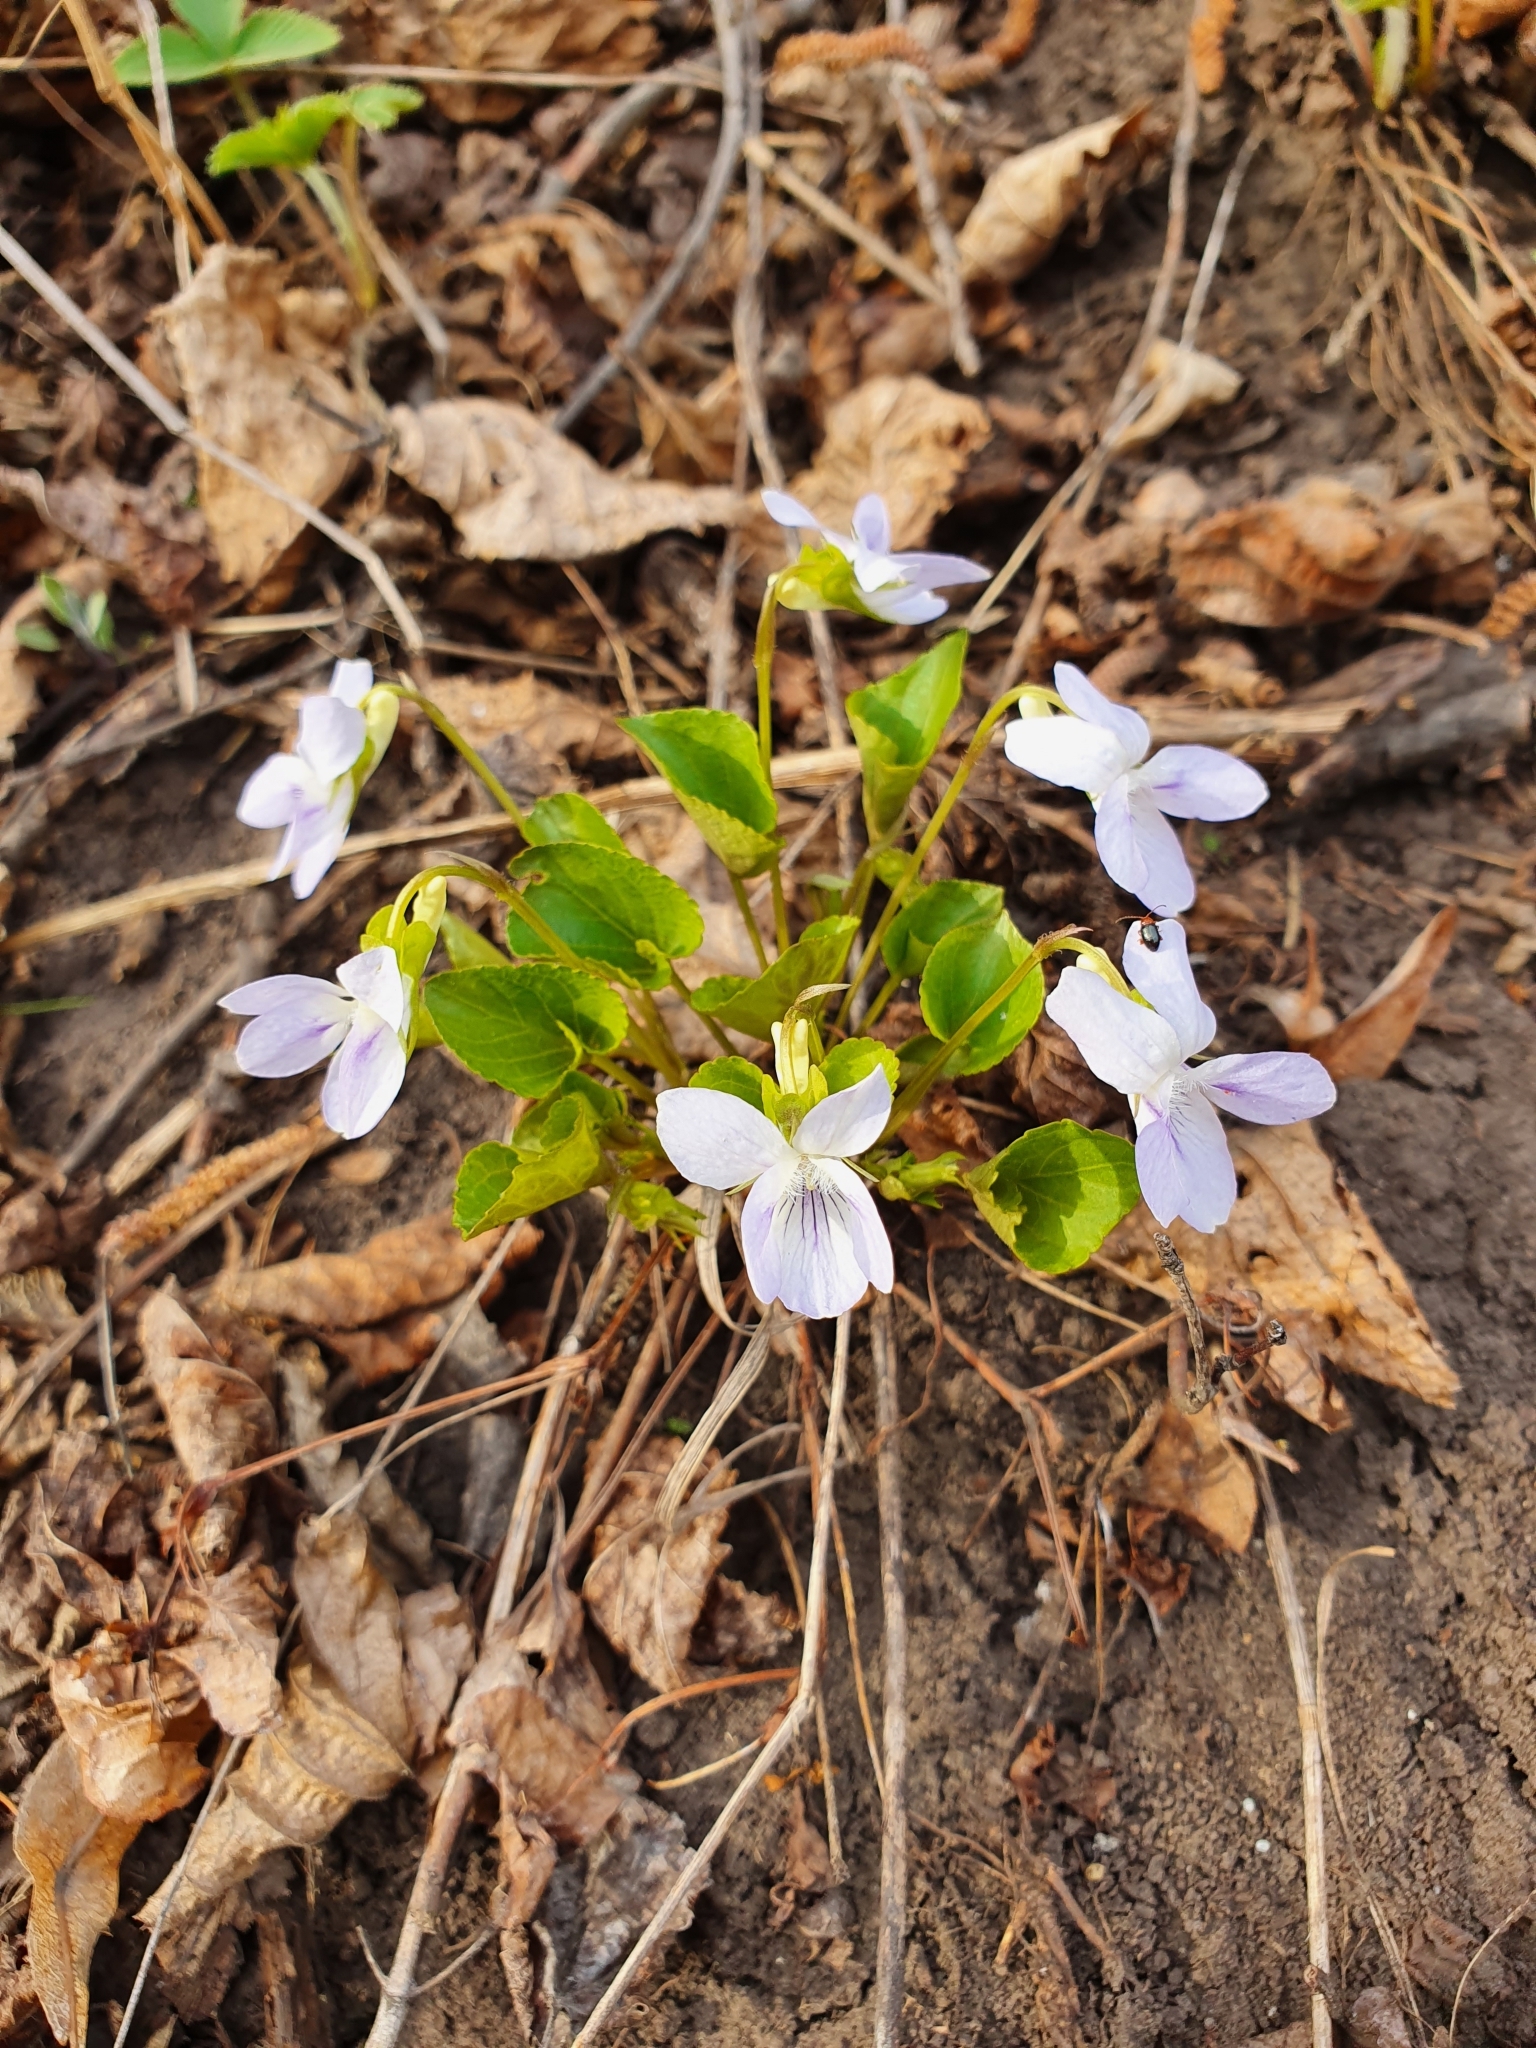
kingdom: Plantae
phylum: Tracheophyta
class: Magnoliopsida
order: Malpighiales
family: Violaceae
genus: Viola
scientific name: Viola rupestris
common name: Teesdale violet
